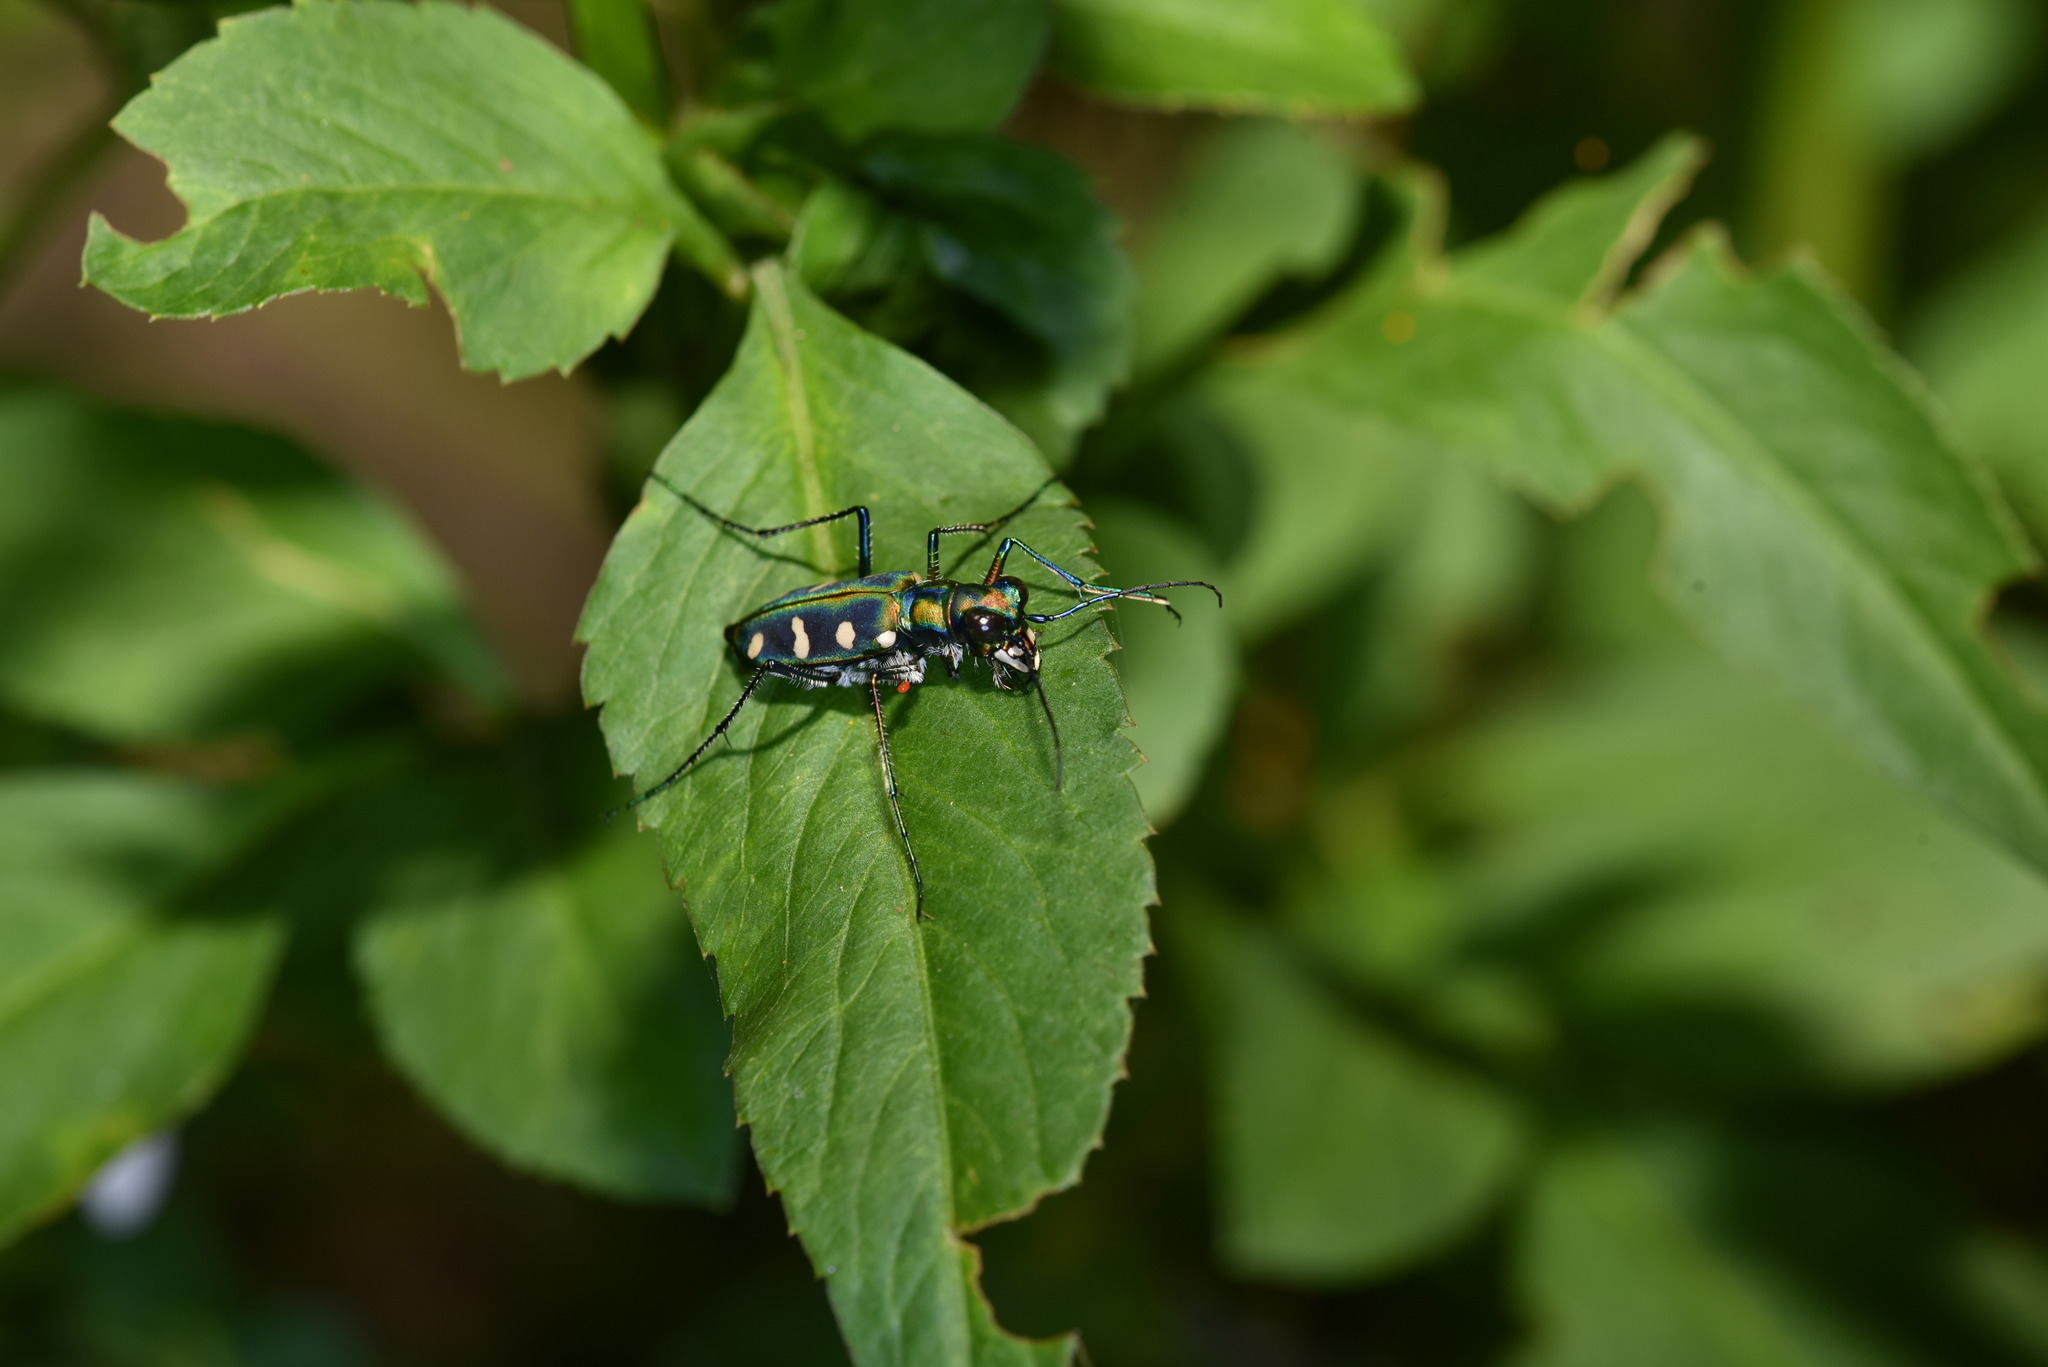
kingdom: Animalia
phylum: Arthropoda
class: Insecta
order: Coleoptera
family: Carabidae
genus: Cicindela
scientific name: Cicindela batesi
